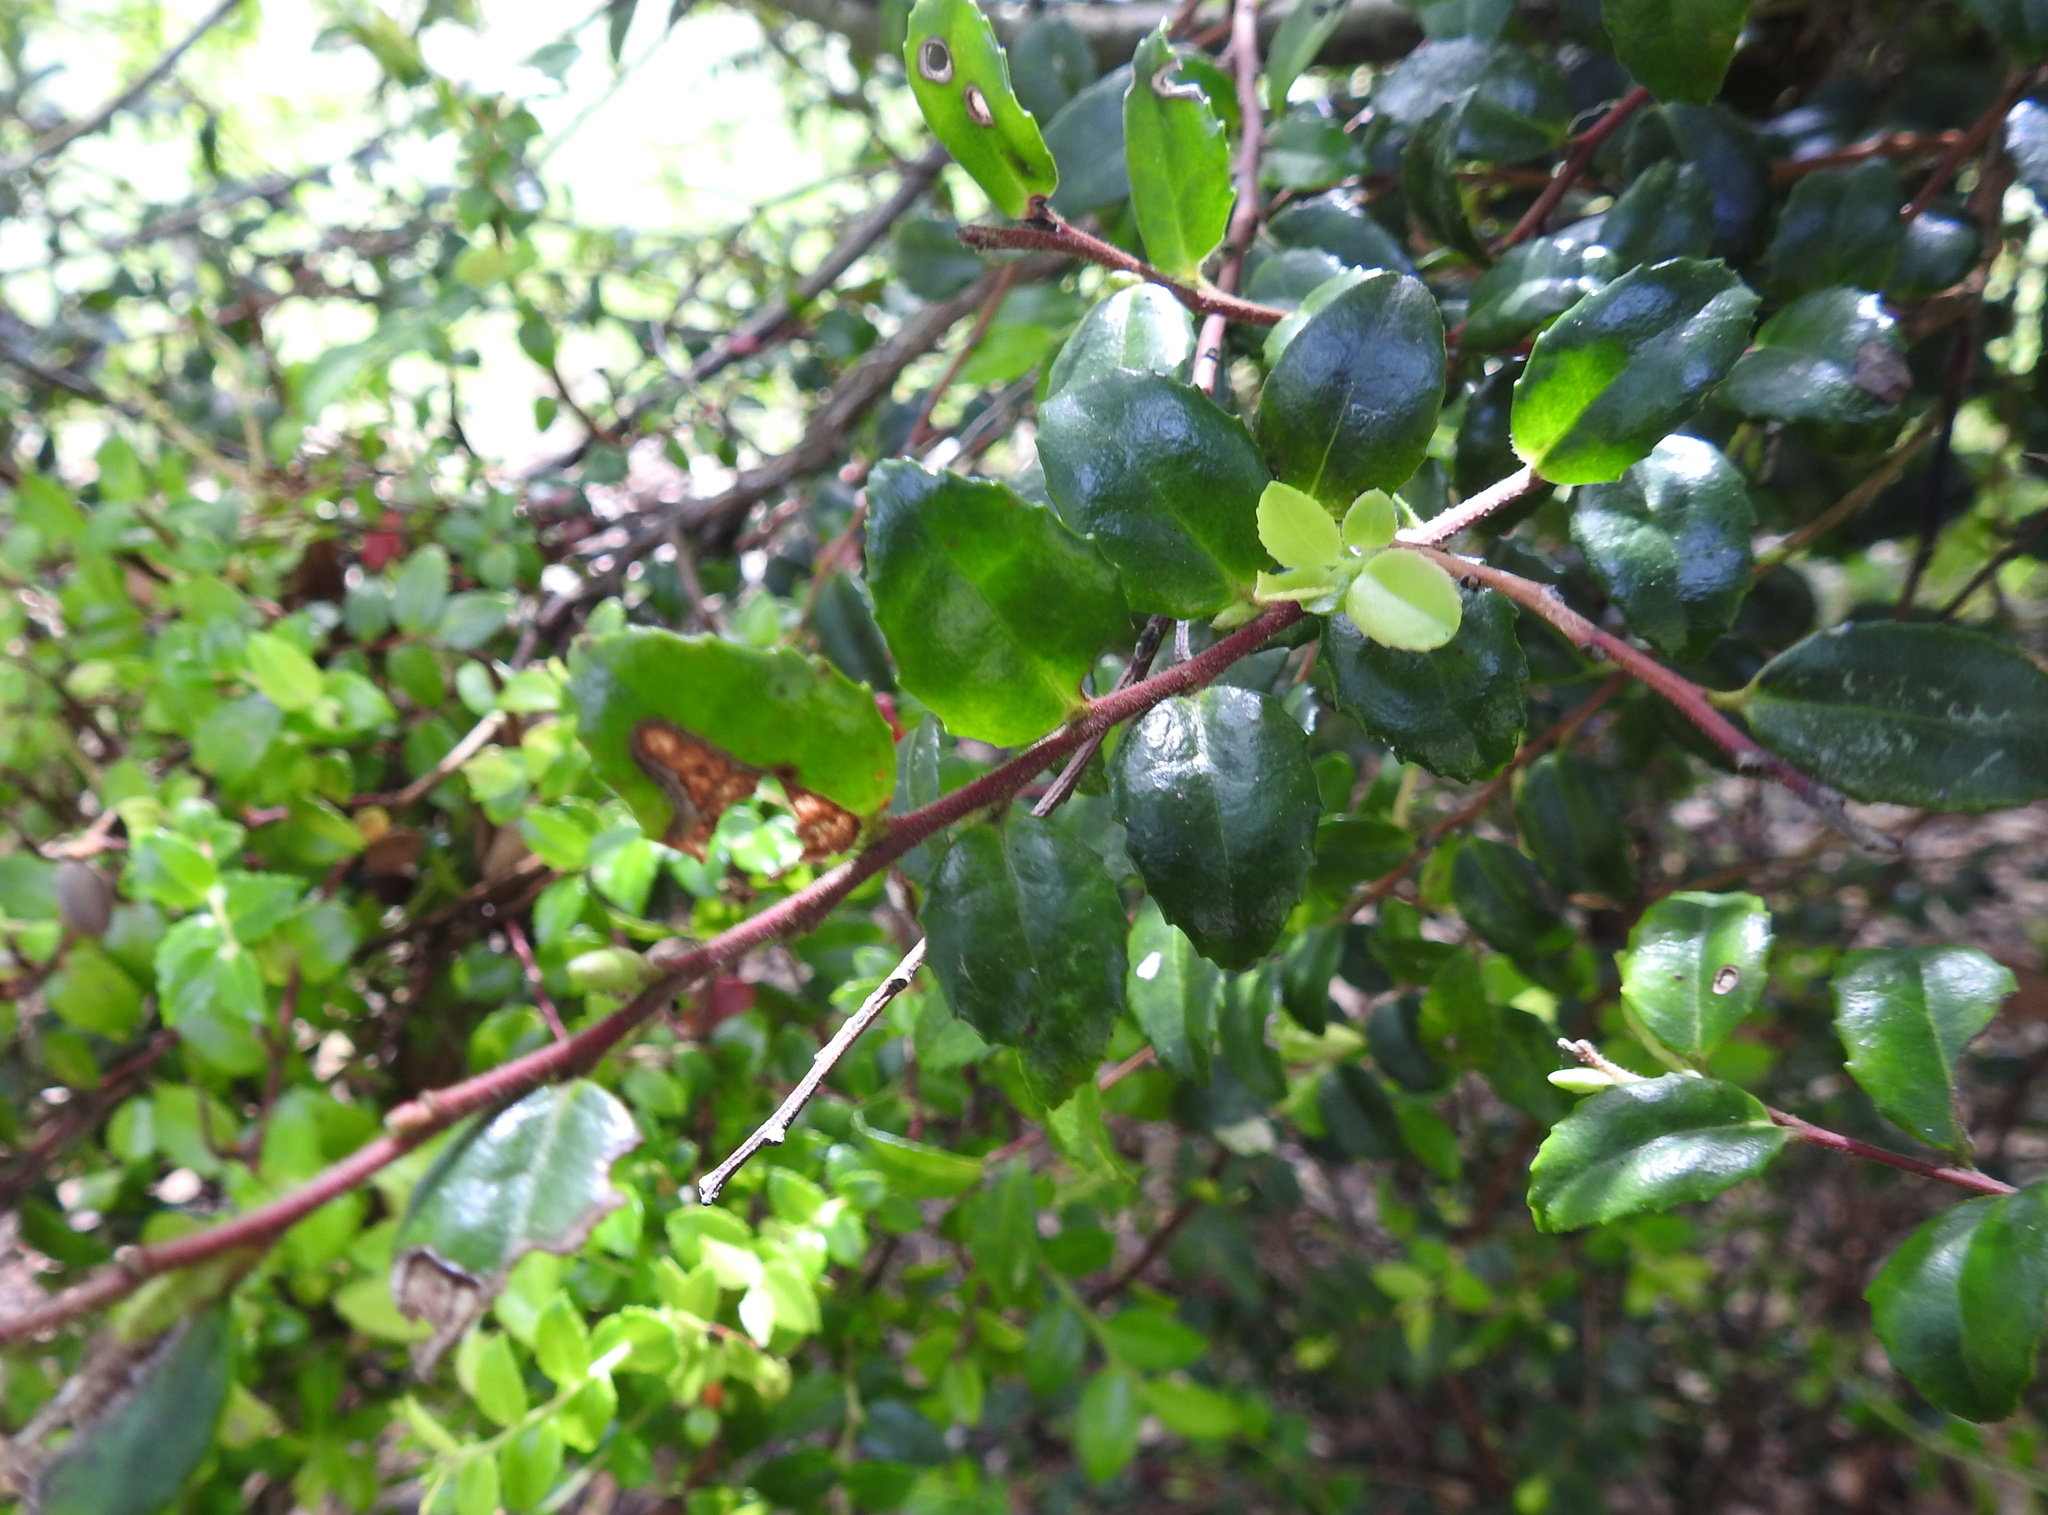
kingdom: Plantae
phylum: Tracheophyta
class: Magnoliopsida
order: Ericales
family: Ericaceae
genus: Vaccinium
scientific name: Vaccinium ovatum
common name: California-huckleberry
